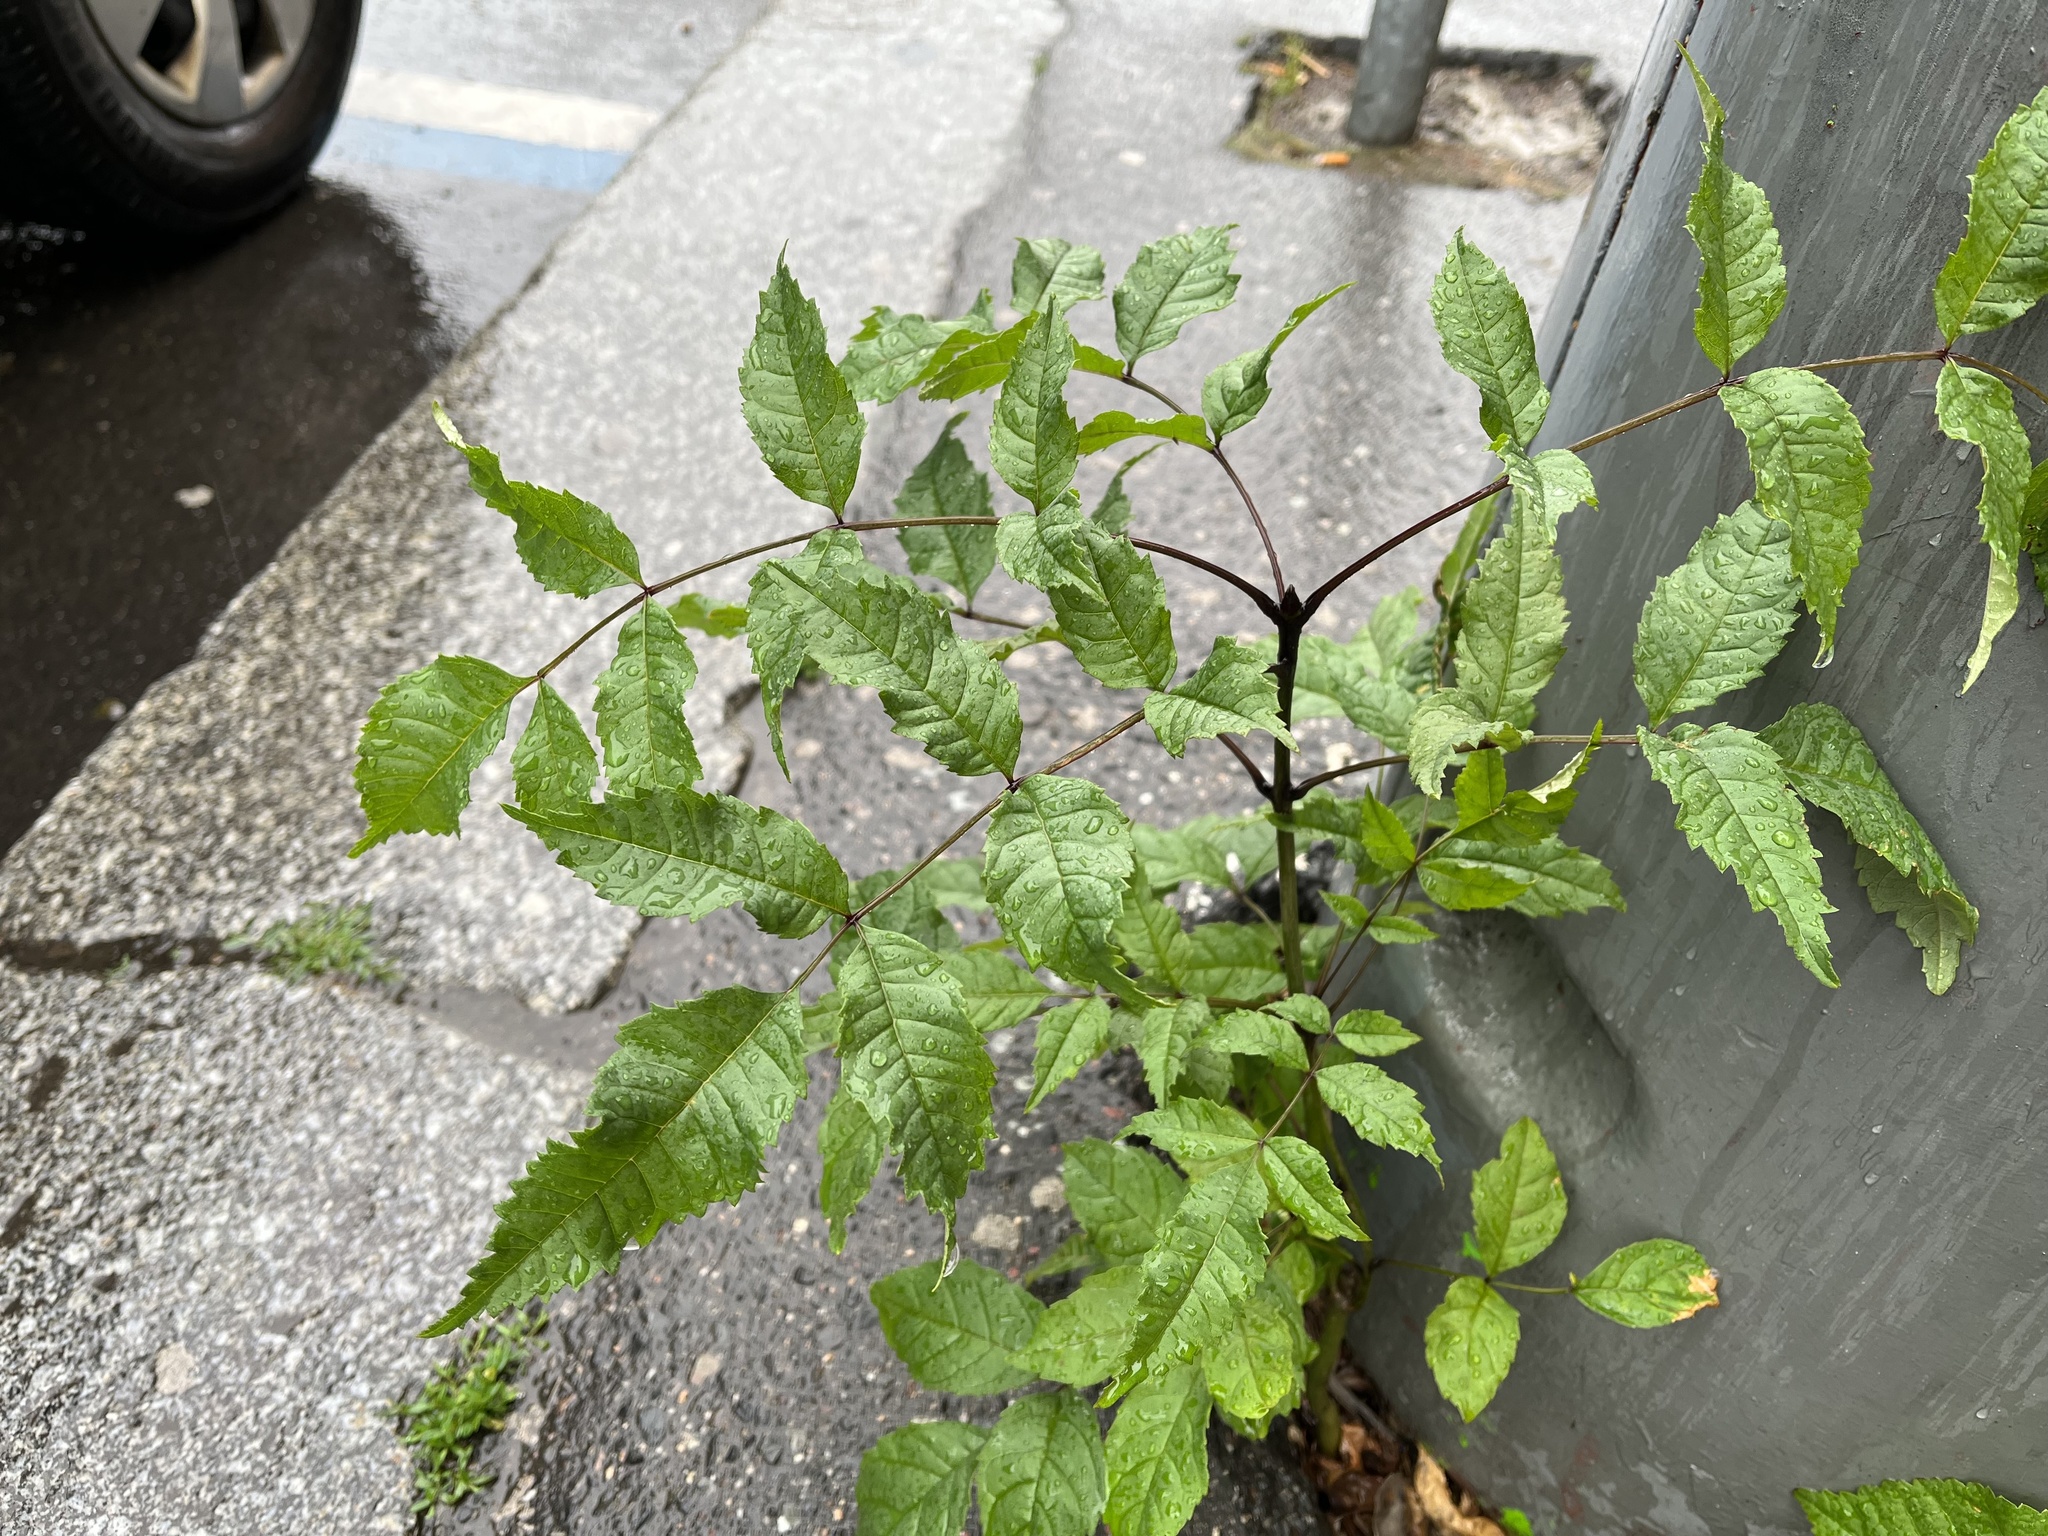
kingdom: Plantae
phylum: Tracheophyta
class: Magnoliopsida
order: Lamiales
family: Oleaceae
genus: Fraxinus
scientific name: Fraxinus excelsior
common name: European ash
